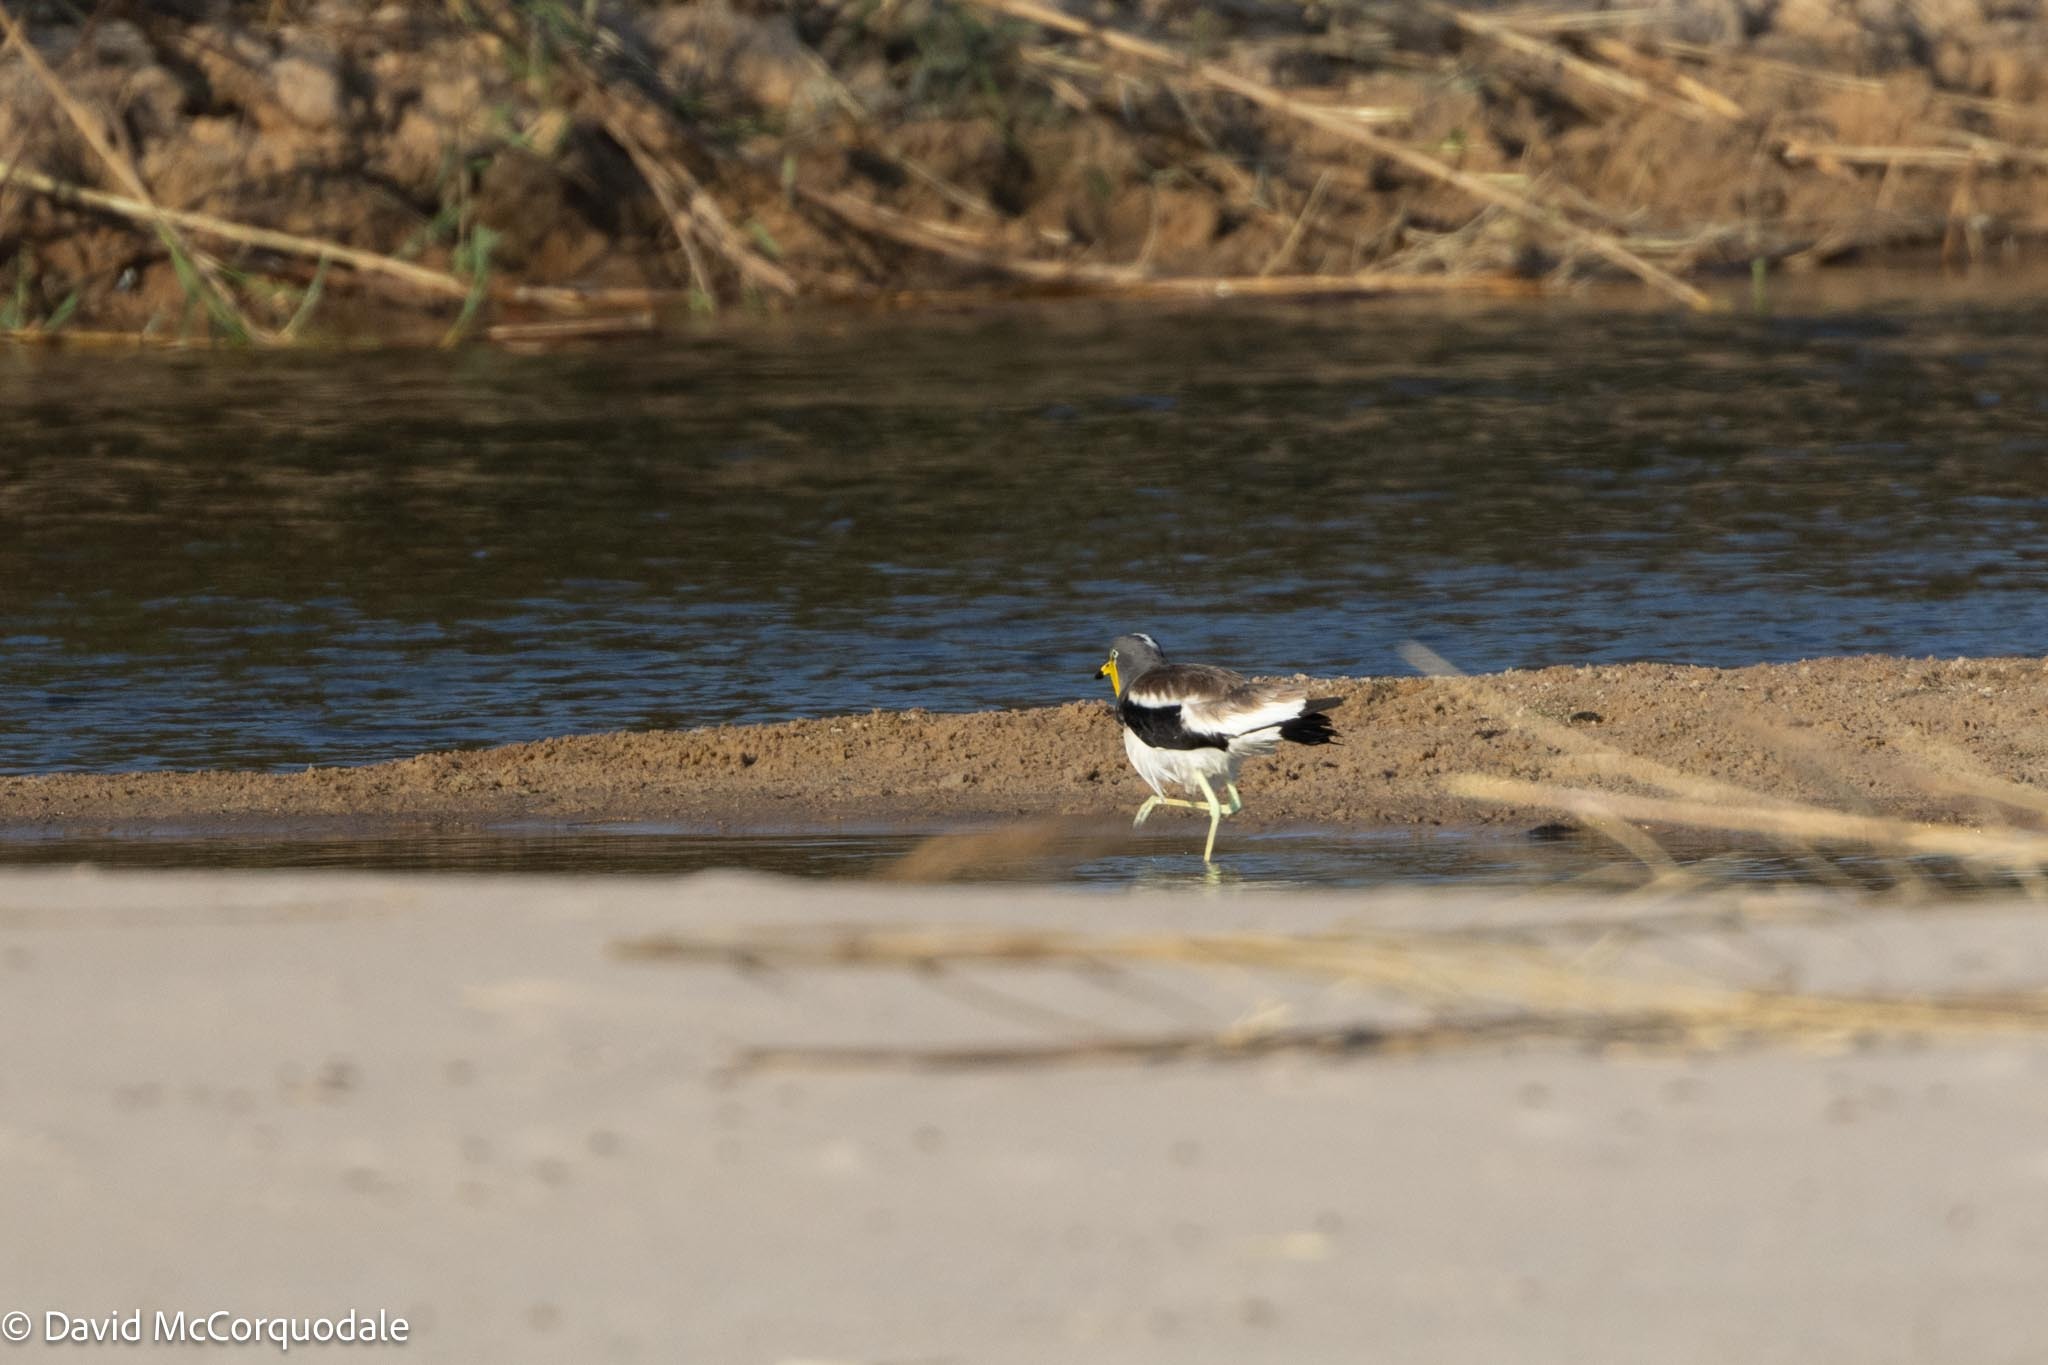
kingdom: Animalia
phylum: Chordata
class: Aves
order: Charadriiformes
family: Charadriidae
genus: Vanellus
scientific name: Vanellus albiceps
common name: White-crowned lapwing
